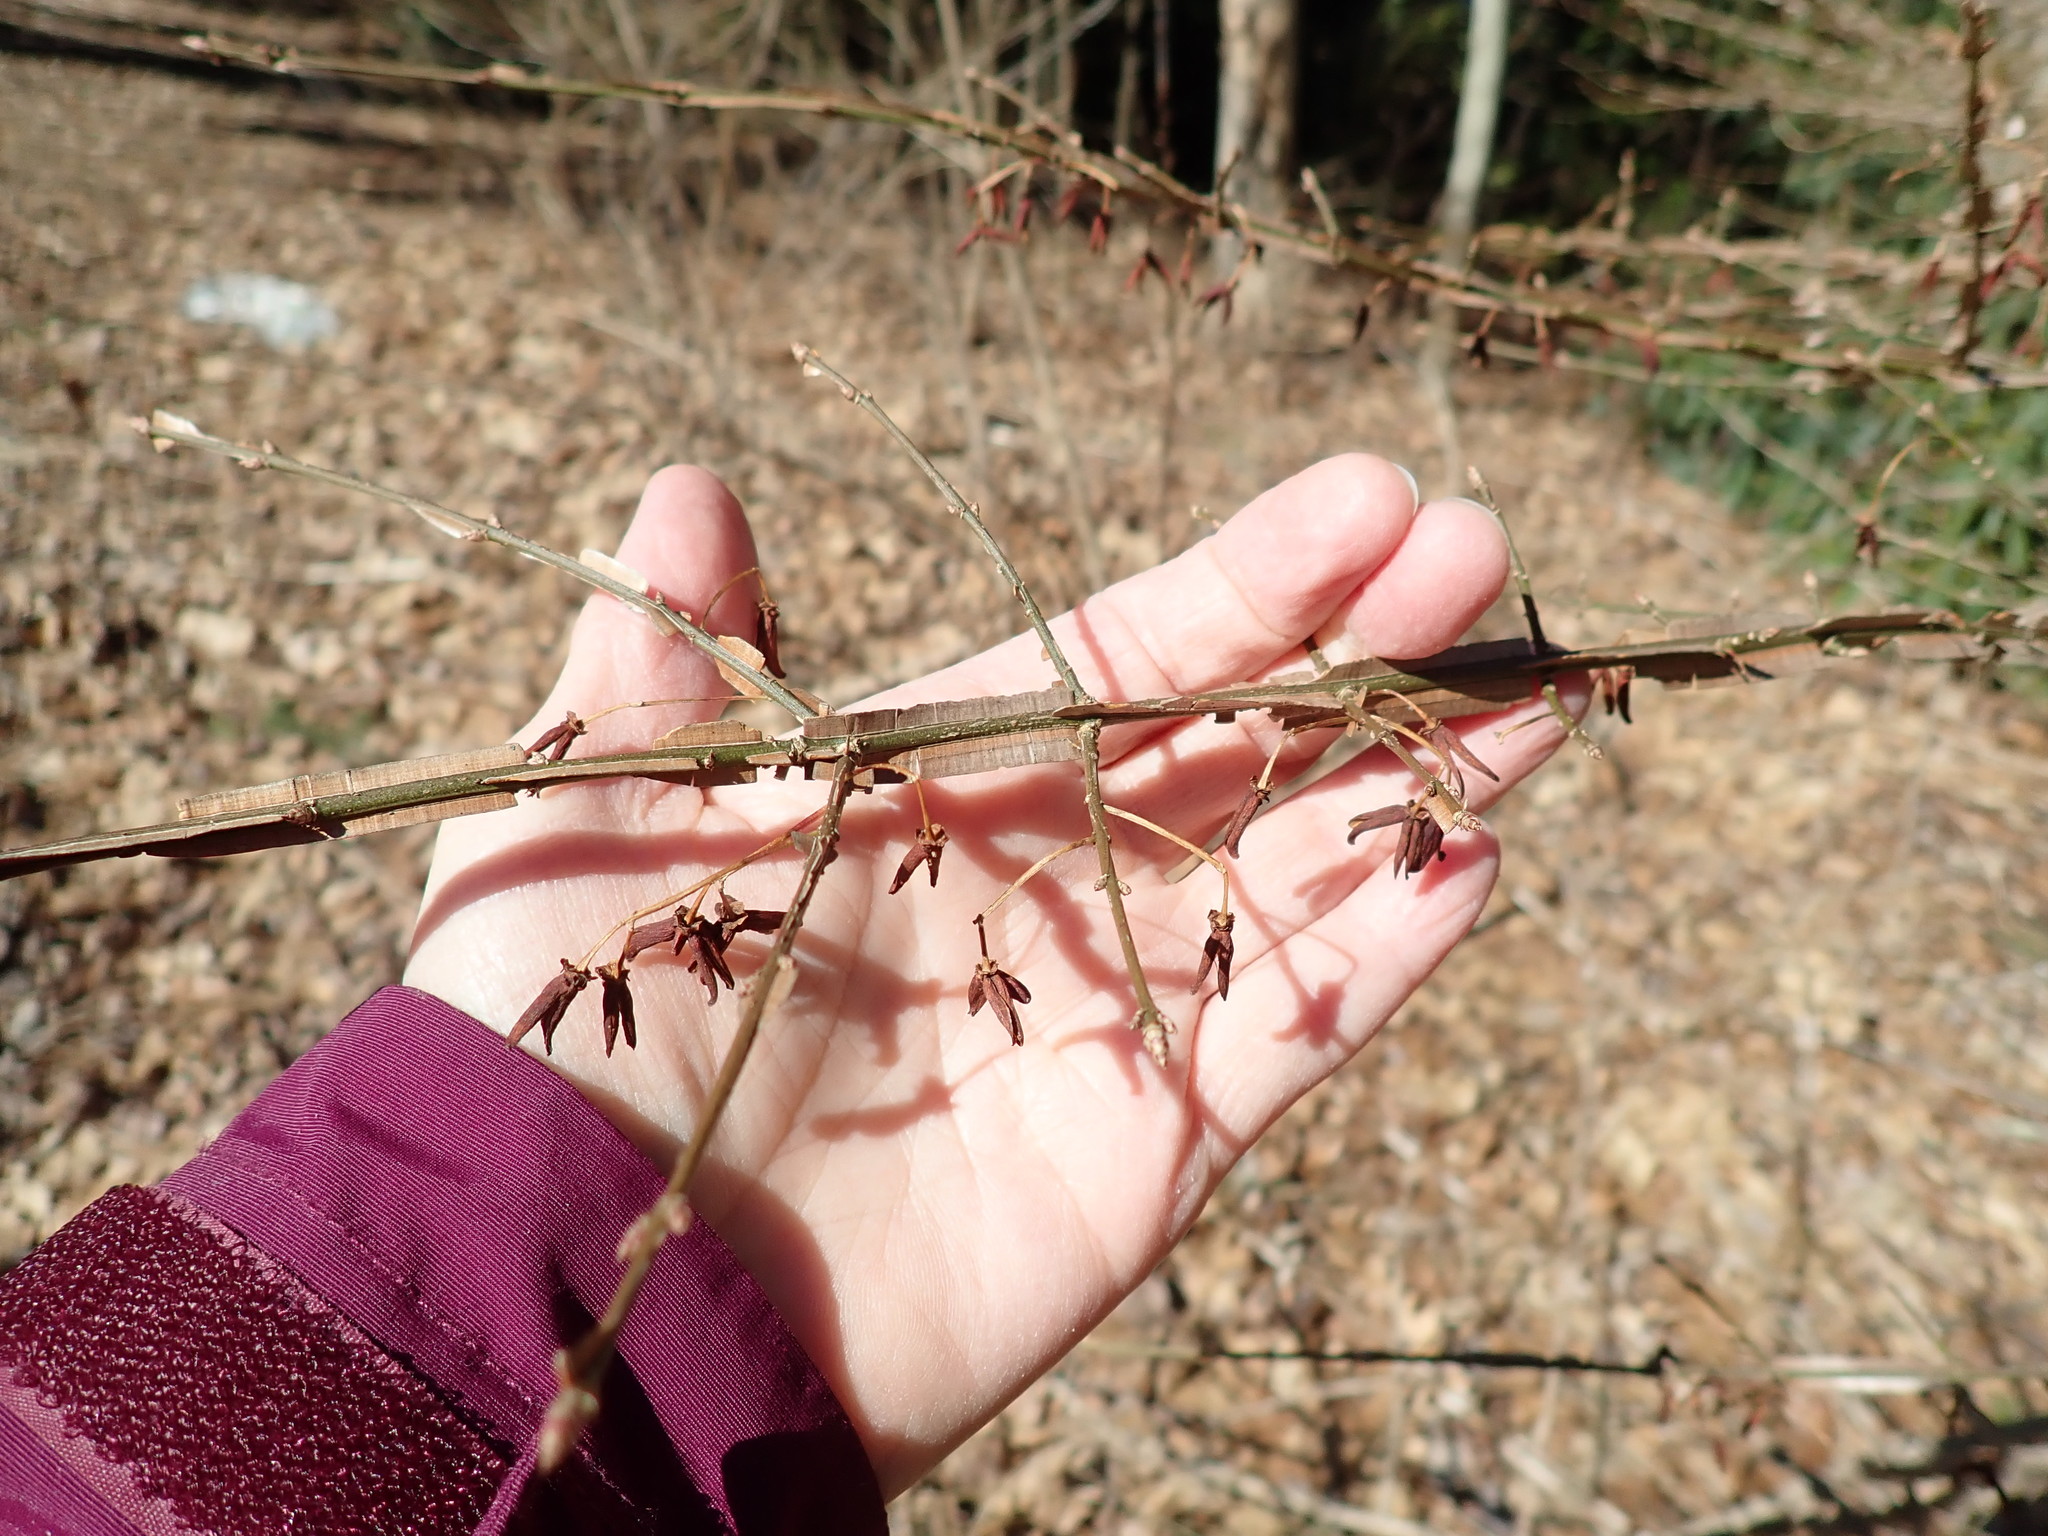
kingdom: Plantae
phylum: Tracheophyta
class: Magnoliopsida
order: Celastrales
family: Celastraceae
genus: Euonymus
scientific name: Euonymus alatus
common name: Winged euonymus
